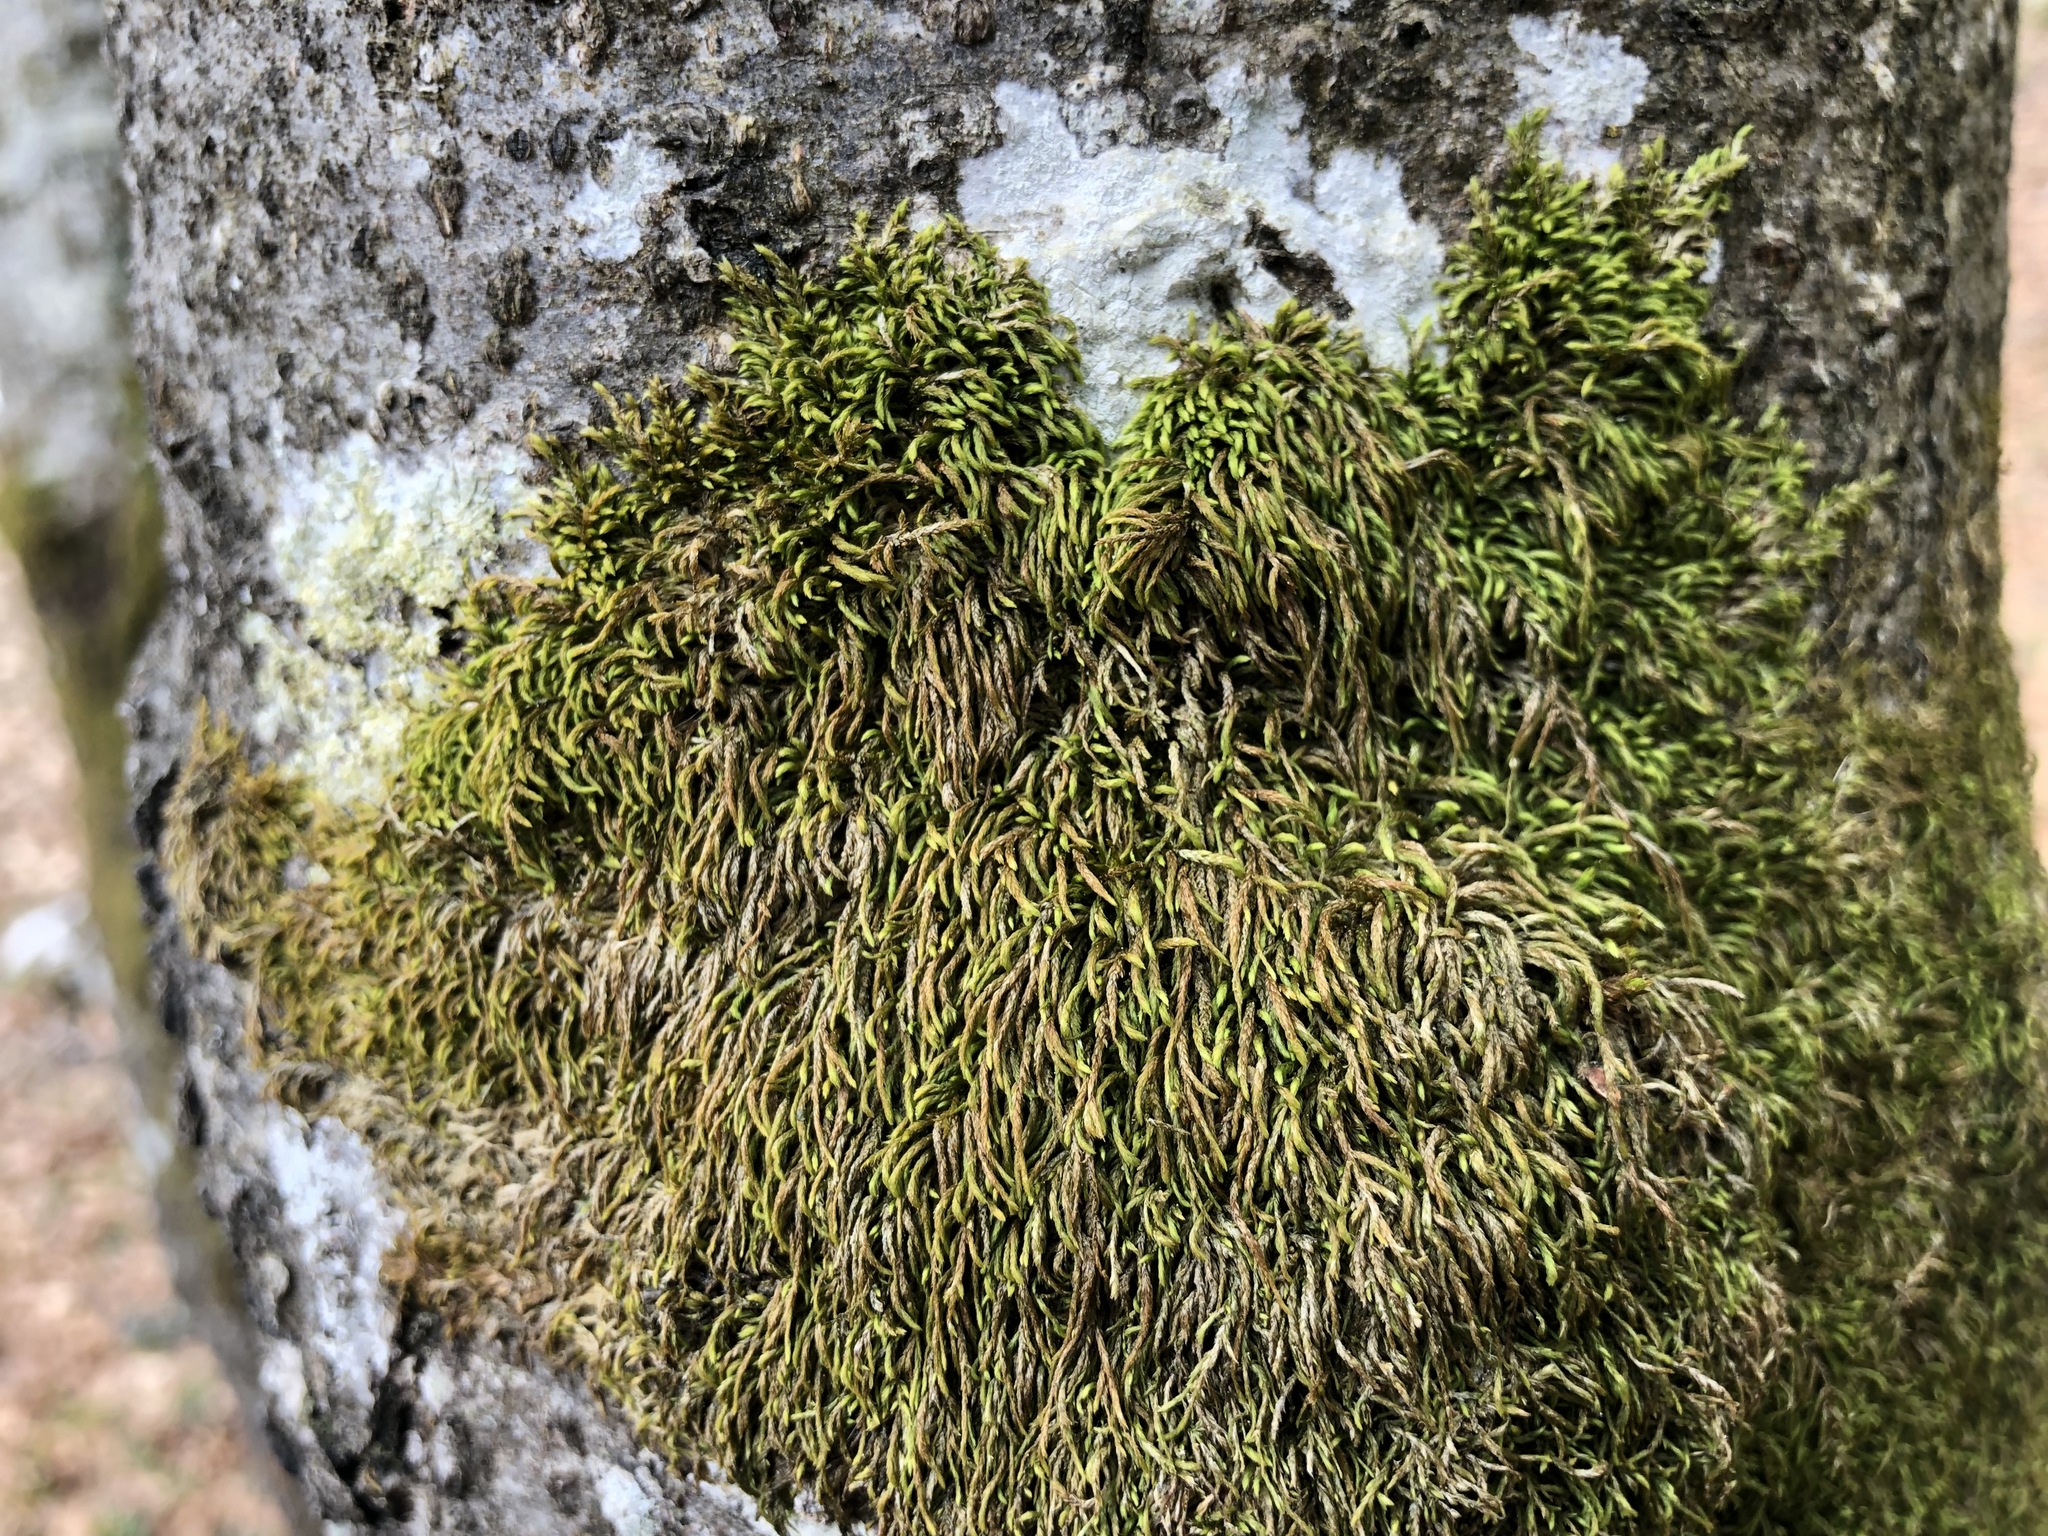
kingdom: Plantae
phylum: Bryophyta
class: Bryopsida
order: Hypnales
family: Pterigynandraceae
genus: Pterigynandrum
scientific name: Pterigynandrum filiforme
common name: Capillary wing moss
